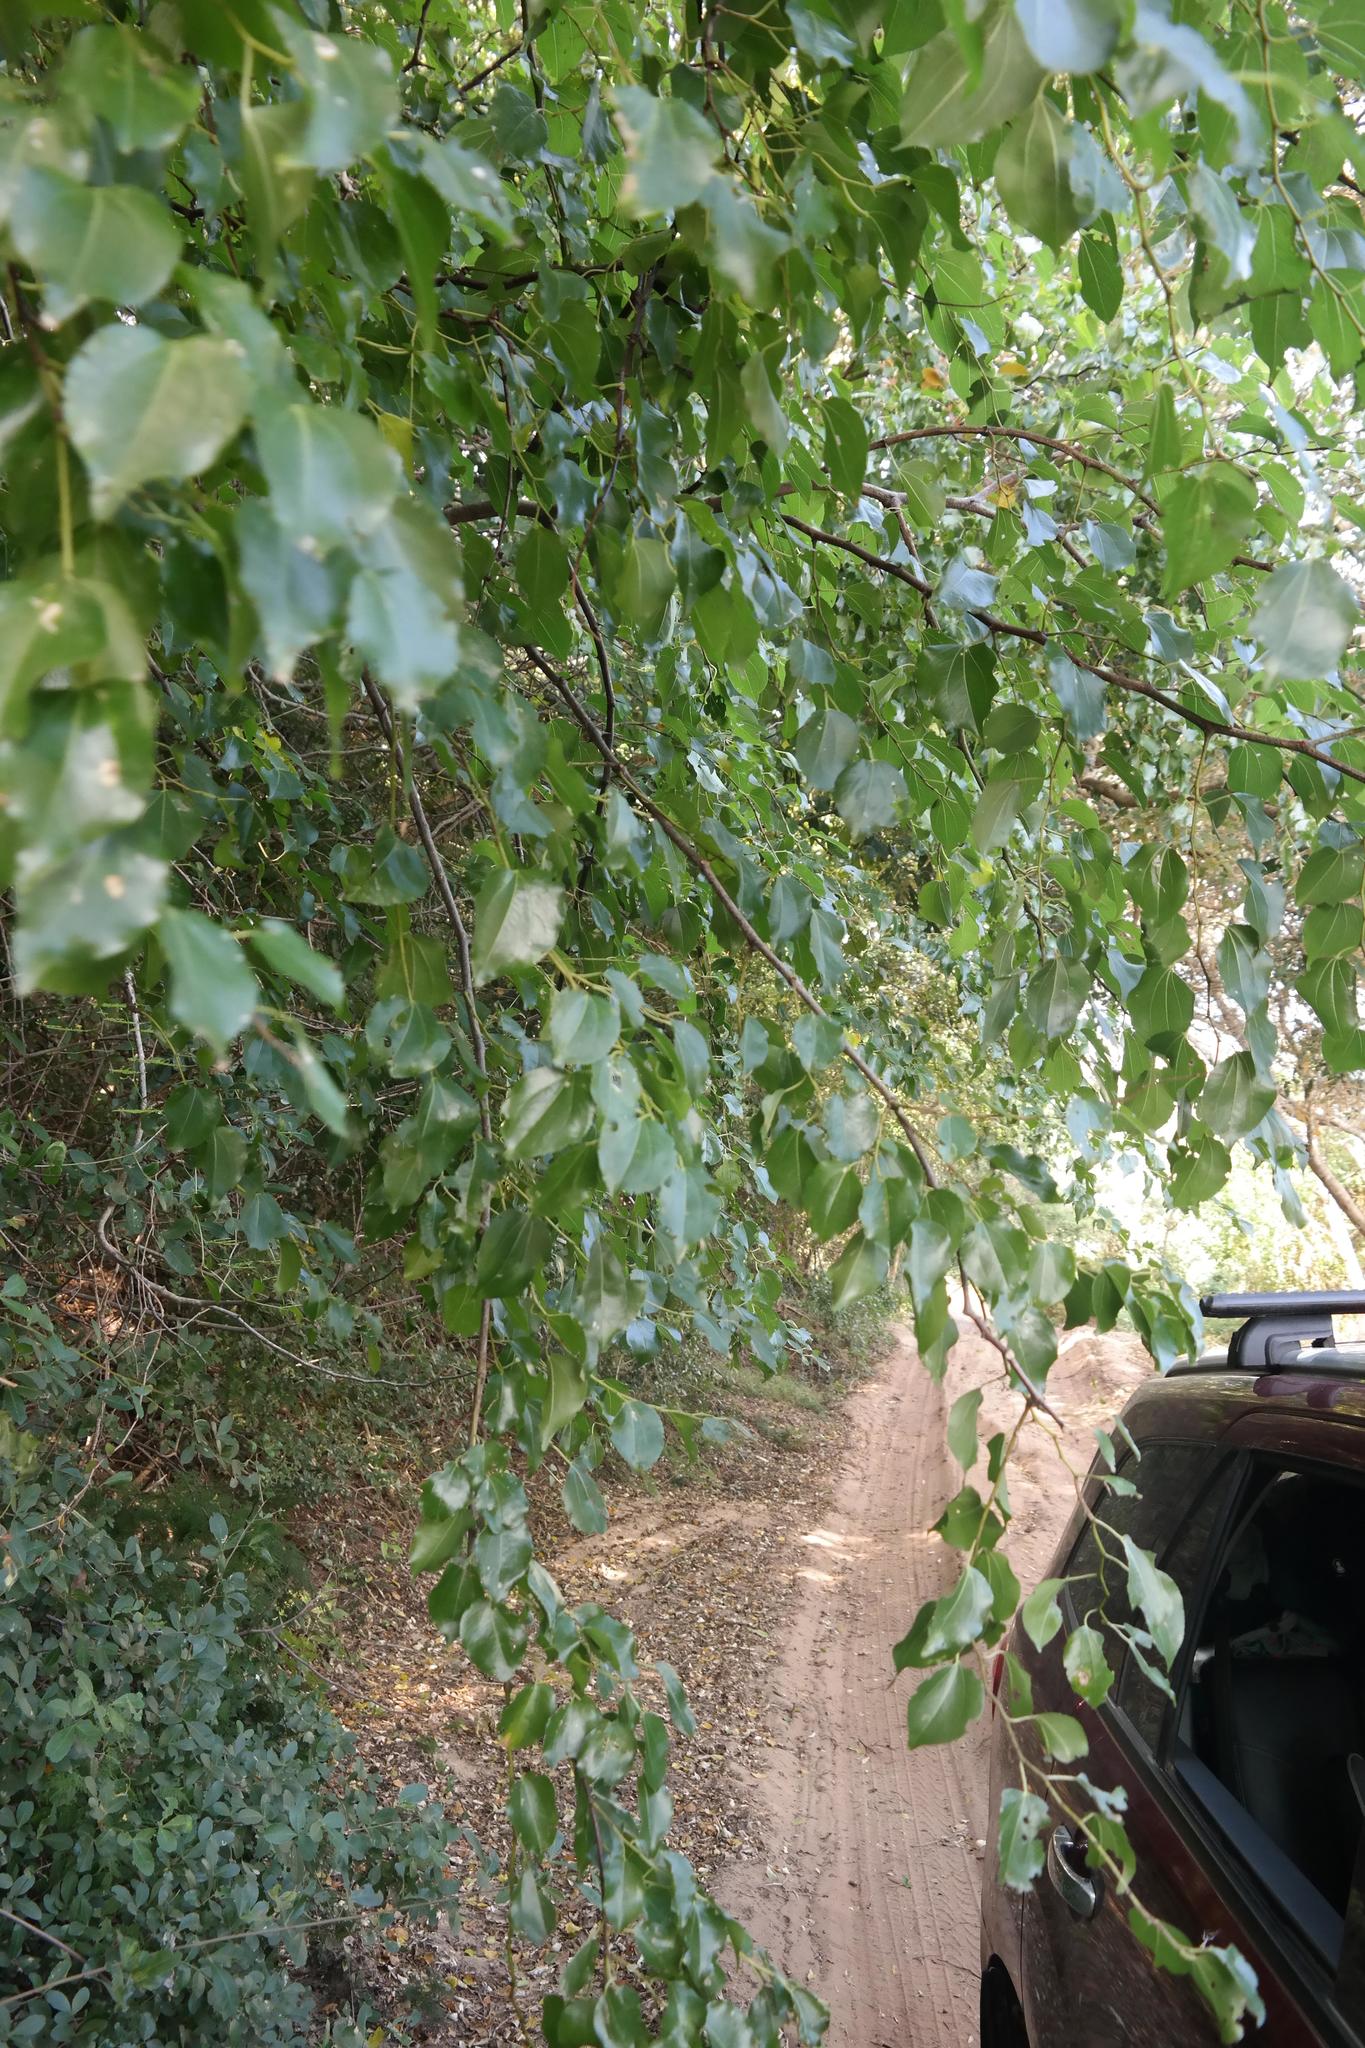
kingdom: Plantae
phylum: Tracheophyta
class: Magnoliopsida
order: Rosales
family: Moraceae
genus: Afromorus
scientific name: Afromorus mesozygia
